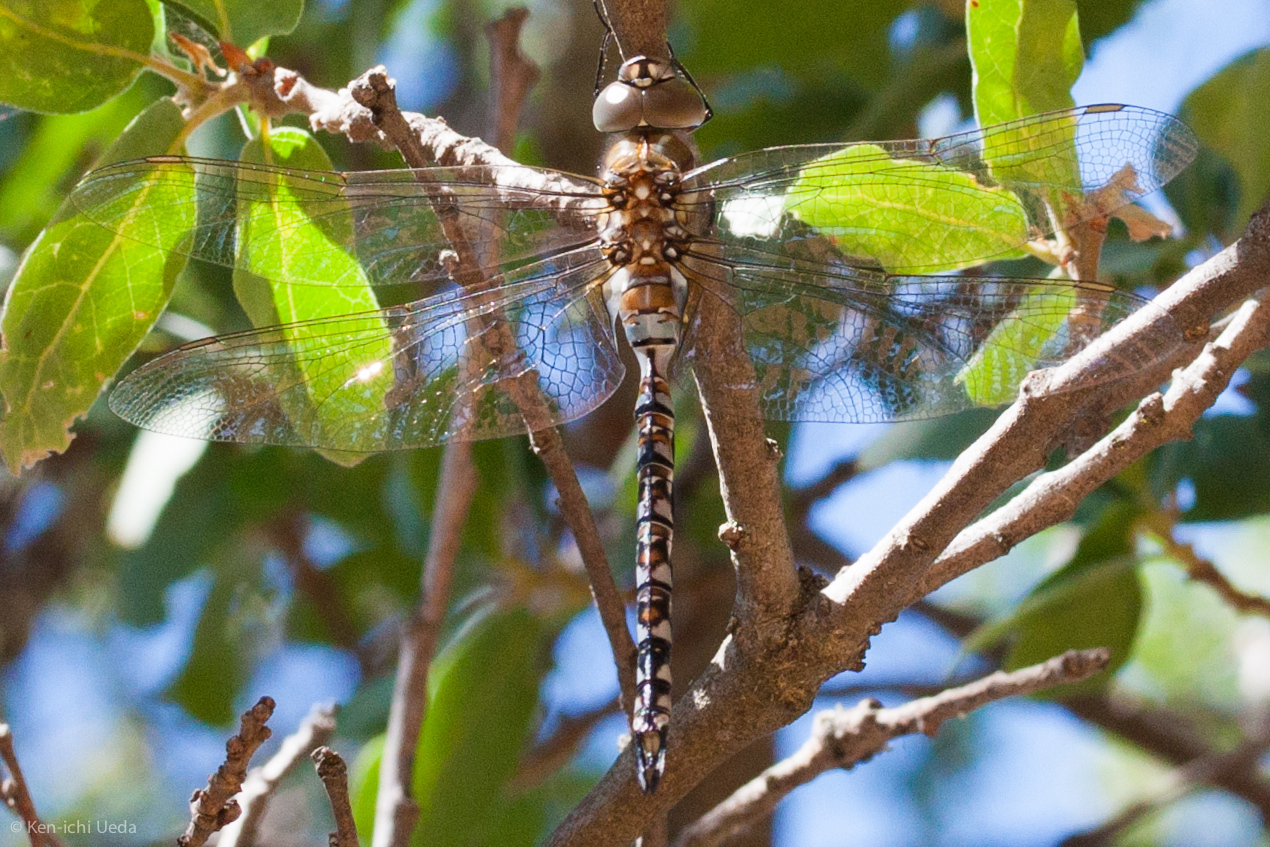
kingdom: Animalia
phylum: Arthropoda
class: Insecta
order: Odonata
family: Aeshnidae
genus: Rhionaeschna
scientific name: Rhionaeschna multicolor
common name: Blue-eyed darner
